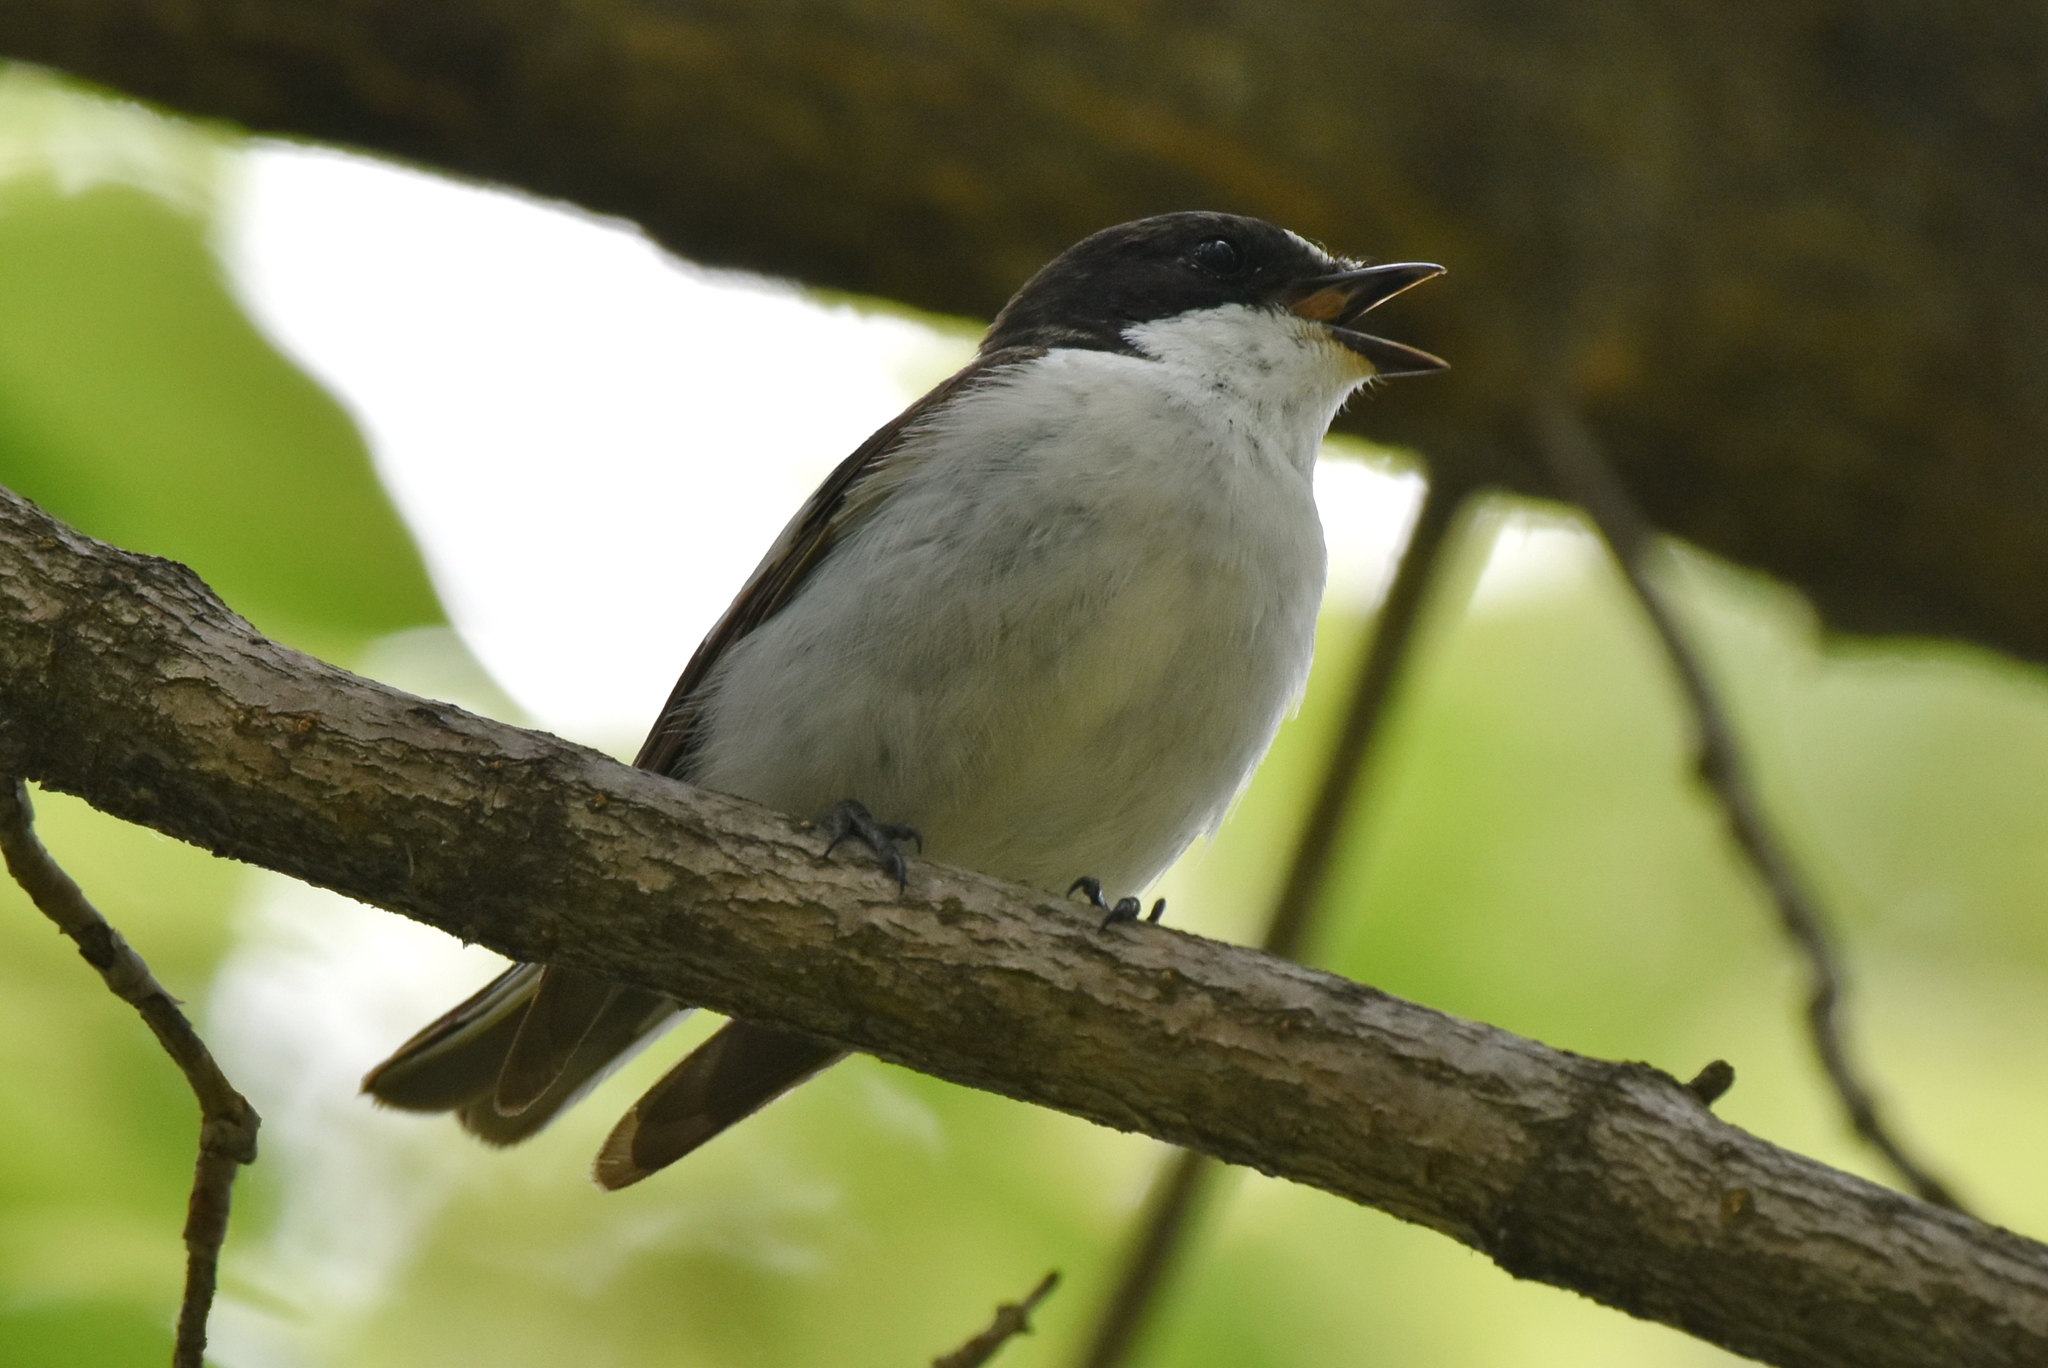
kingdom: Animalia
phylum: Chordata
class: Aves
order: Passeriformes
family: Muscicapidae
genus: Ficedula
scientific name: Ficedula hypoleuca
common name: European pied flycatcher
